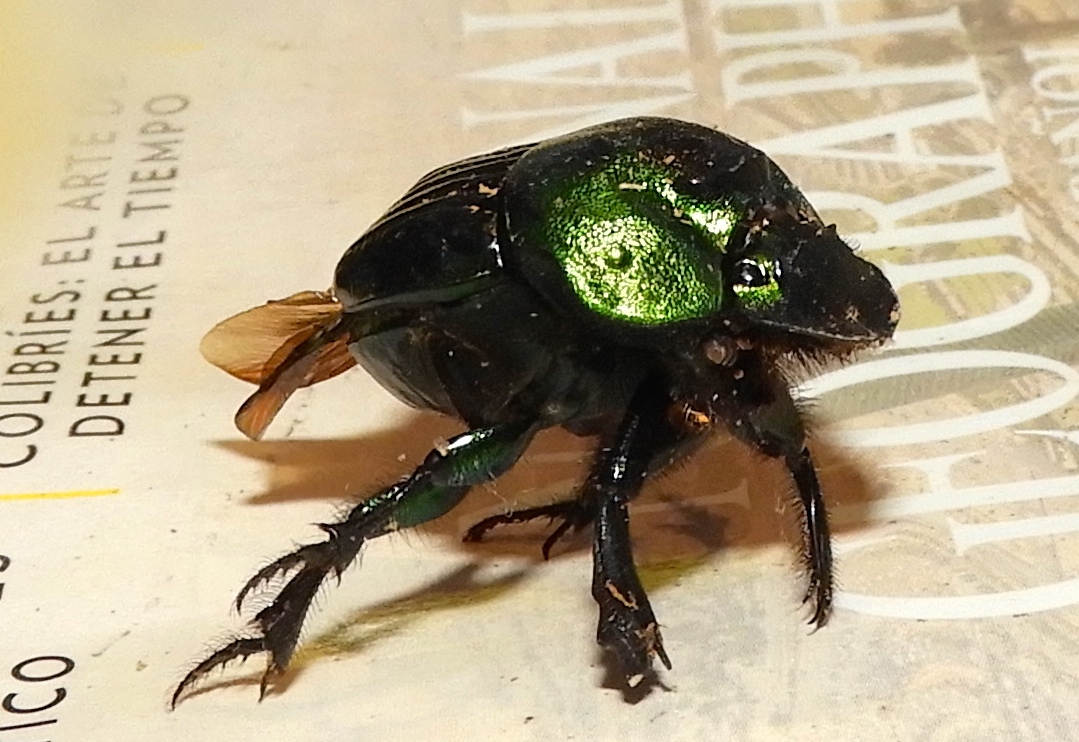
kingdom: Animalia
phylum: Arthropoda
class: Insecta
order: Coleoptera
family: Scarabaeidae
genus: Phanaeus
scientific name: Phanaeus amithaon
